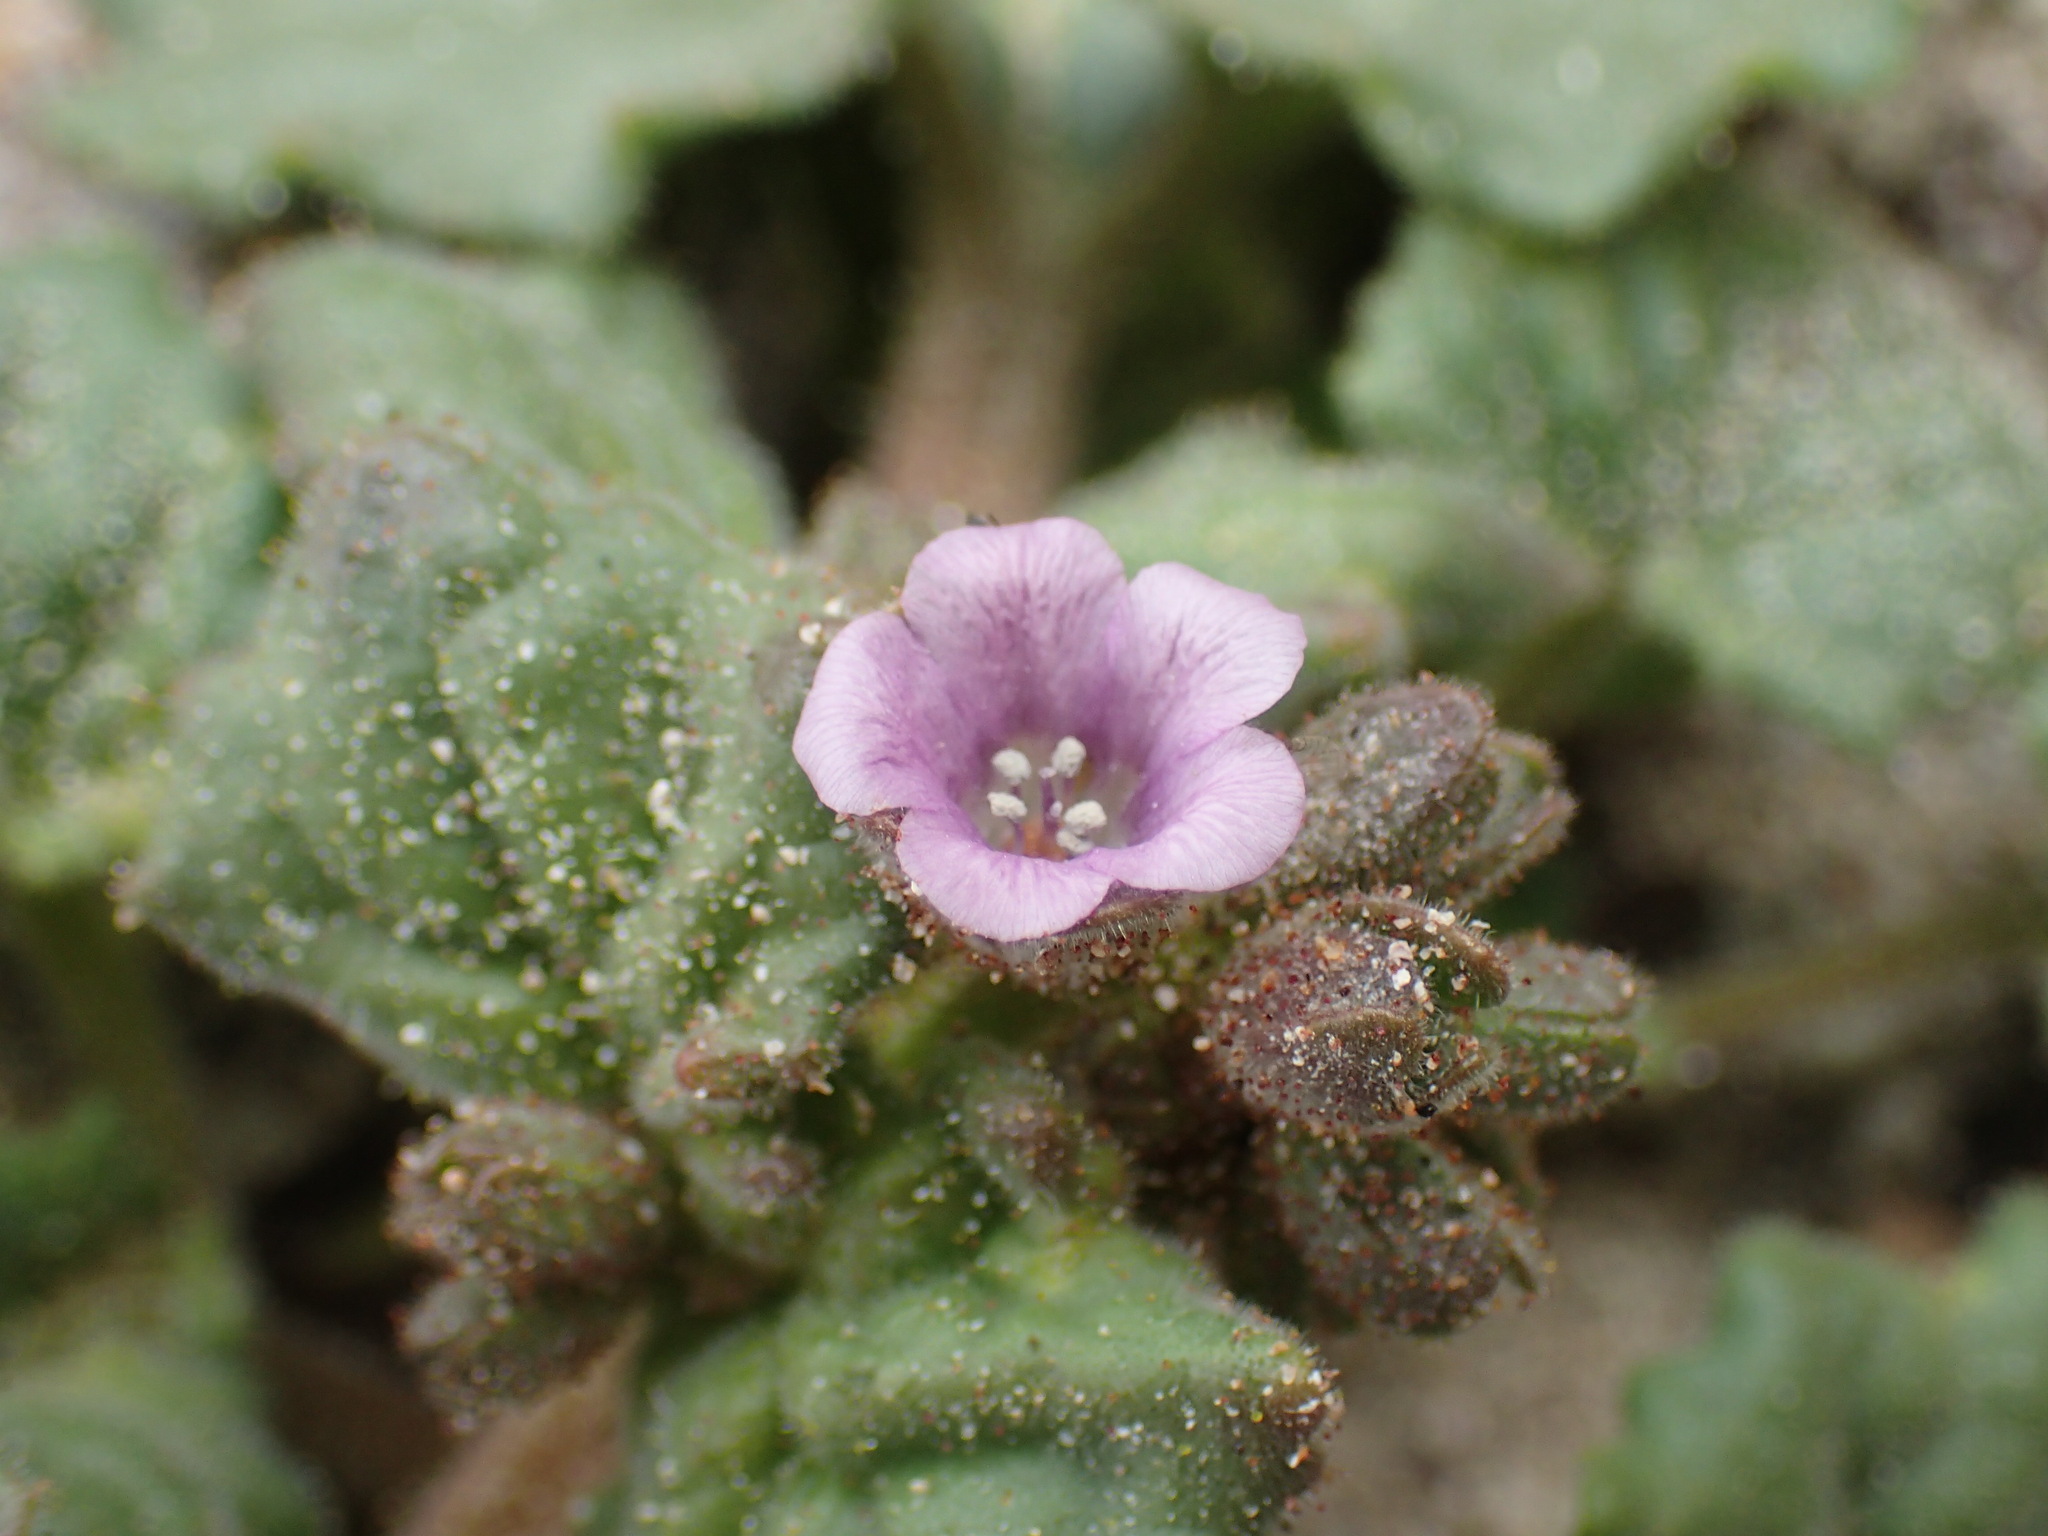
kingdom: Plantae
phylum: Tracheophyta
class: Magnoliopsida
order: Boraginales
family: Hydrophyllaceae
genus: Phacelia
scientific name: Phacelia pachyphylla
